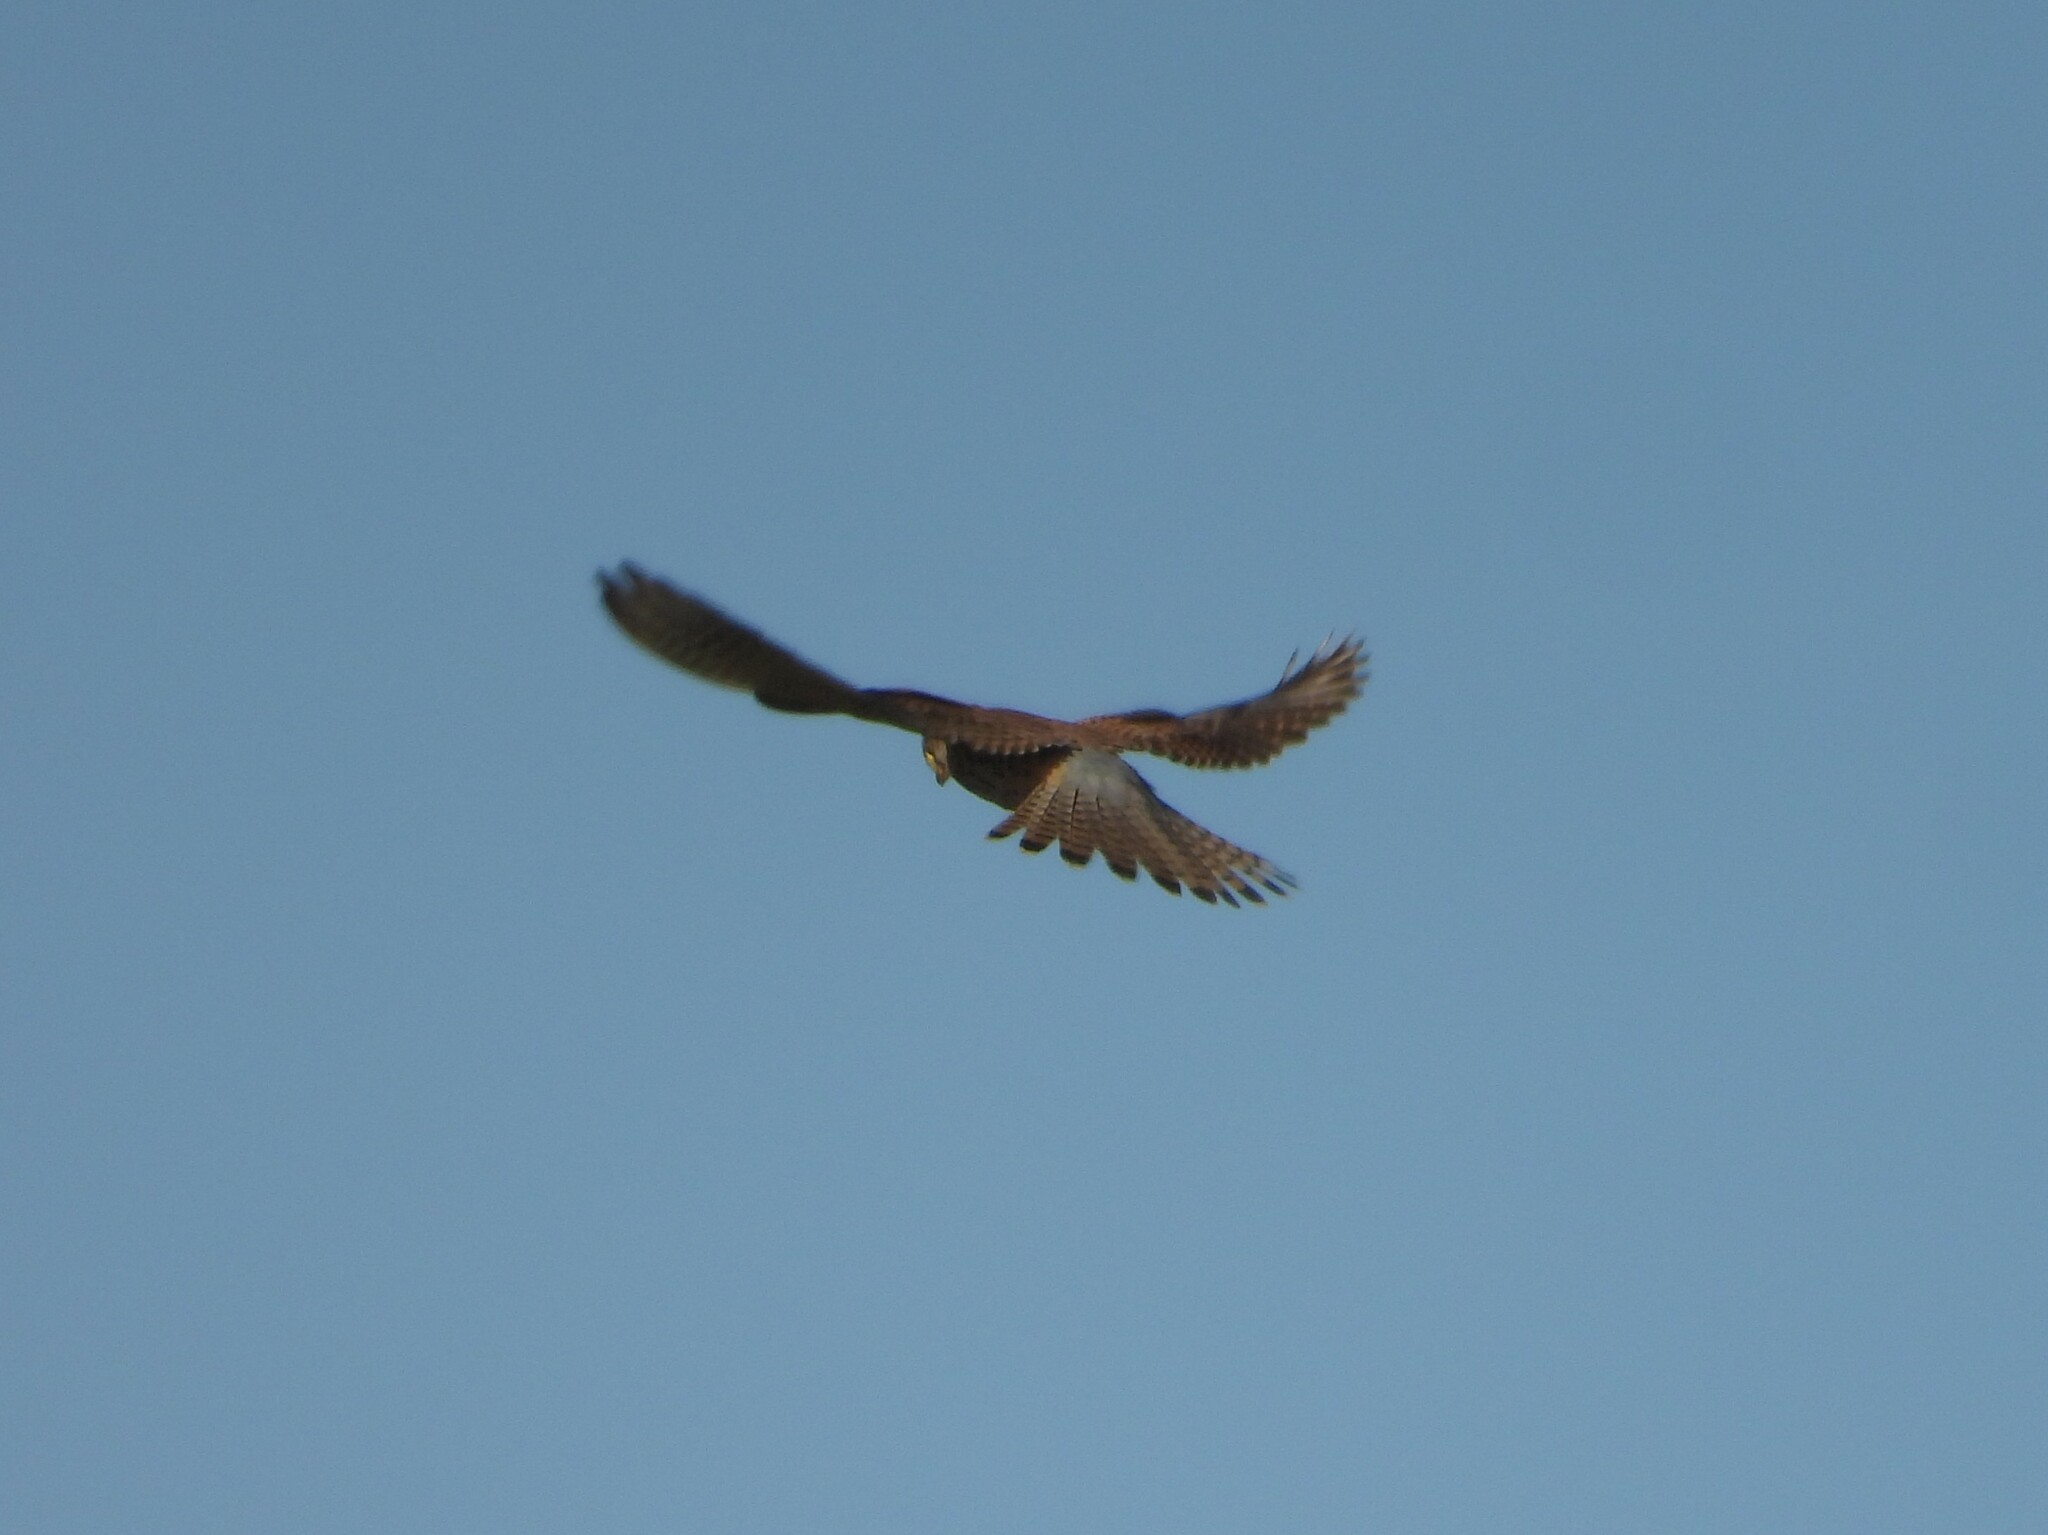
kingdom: Animalia
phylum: Chordata
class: Aves
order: Falconiformes
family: Falconidae
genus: Falco
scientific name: Falco tinnunculus
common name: Common kestrel
